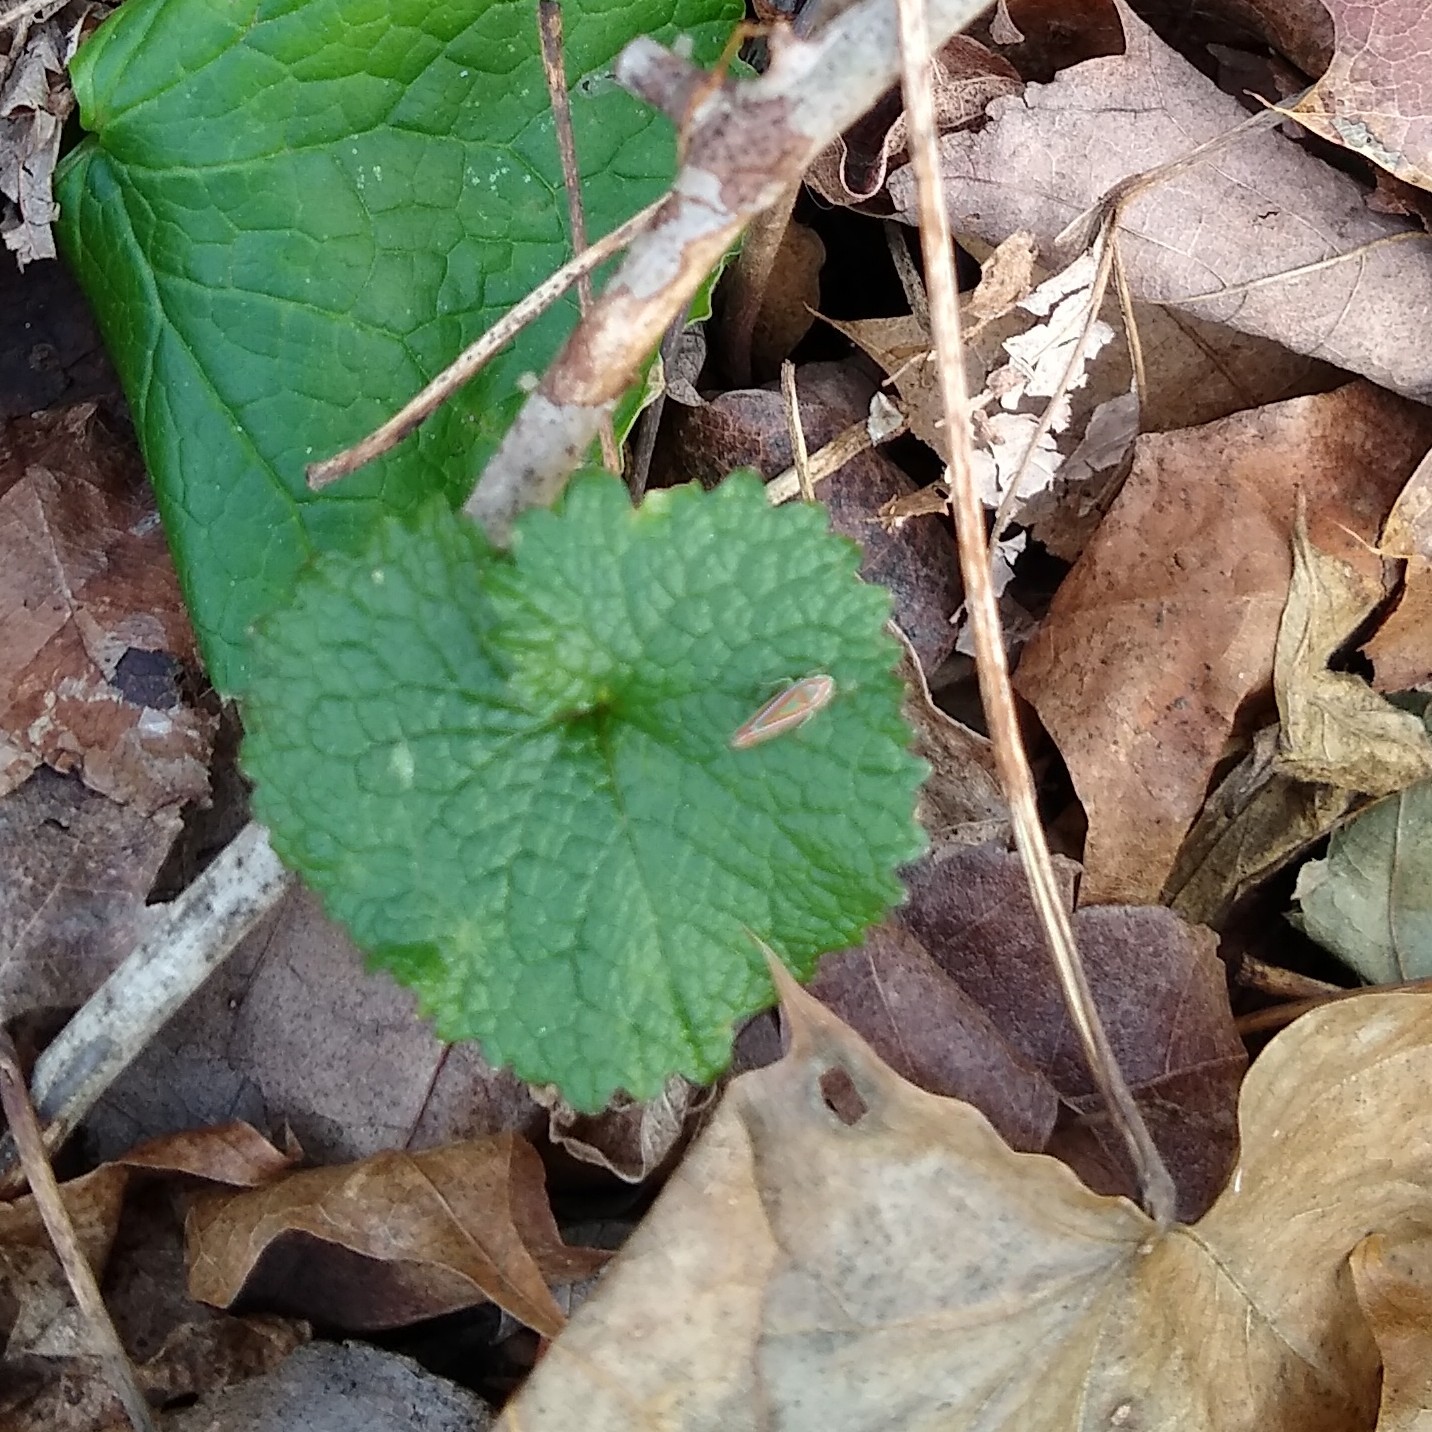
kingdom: Plantae
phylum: Tracheophyta
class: Magnoliopsida
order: Brassicales
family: Brassicaceae
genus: Alliaria
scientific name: Alliaria petiolata
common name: Garlic mustard
